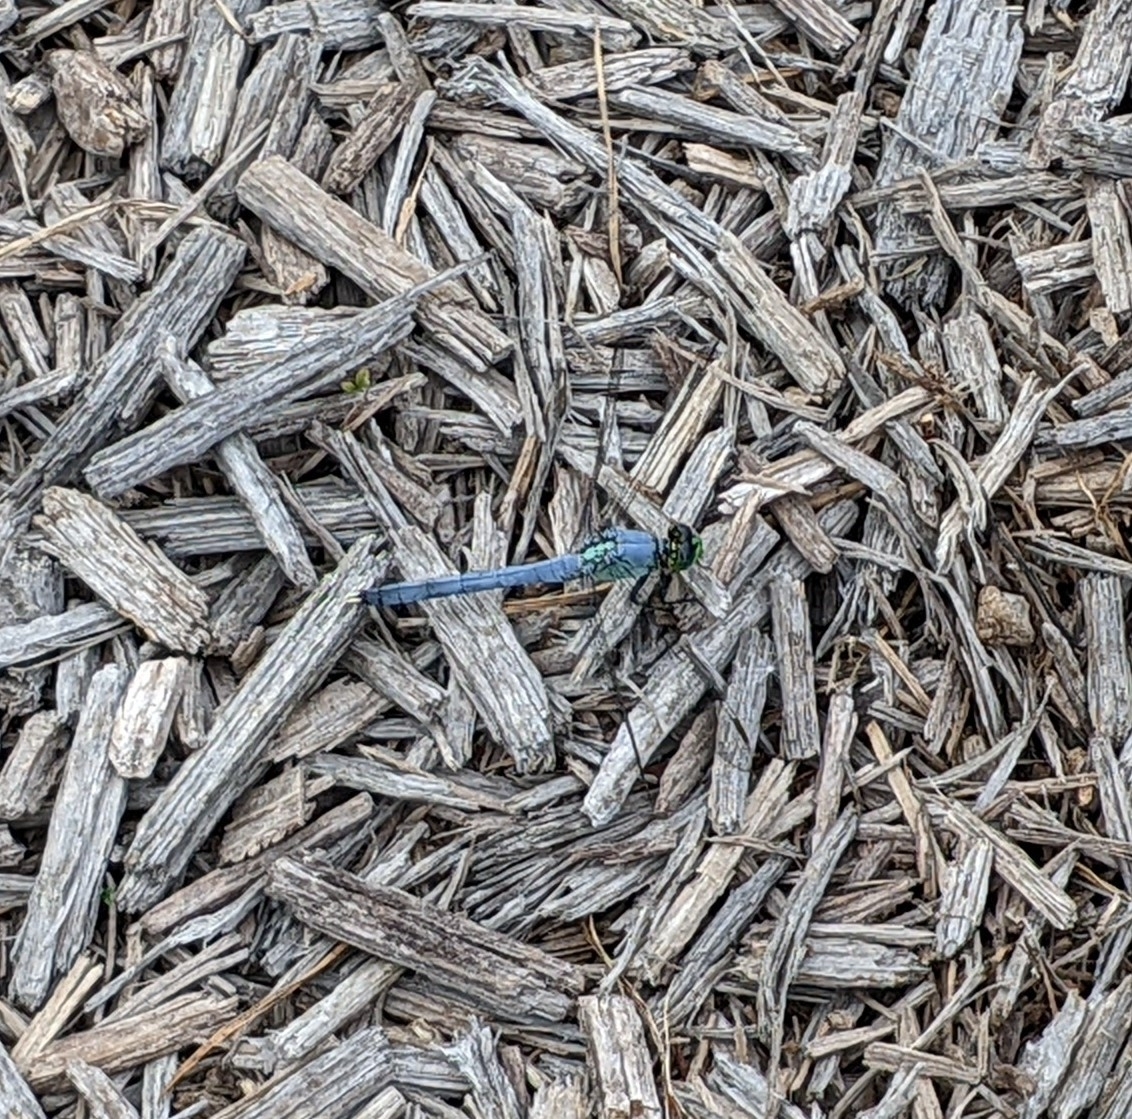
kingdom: Animalia
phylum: Arthropoda
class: Insecta
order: Odonata
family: Libellulidae
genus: Erythemis
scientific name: Erythemis simplicicollis
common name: Eastern pondhawk
